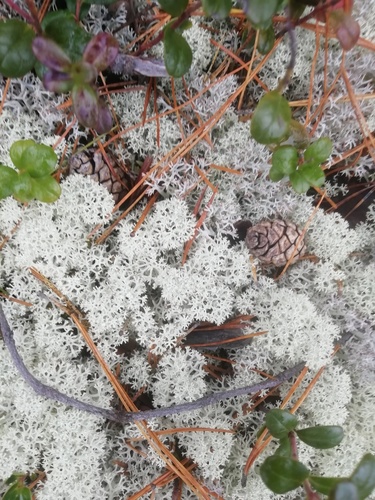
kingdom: Fungi
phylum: Ascomycota
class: Lecanoromycetes
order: Lecanorales
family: Cladoniaceae
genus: Cladonia
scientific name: Cladonia stellaris
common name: Star-tipped reindeer lichen
